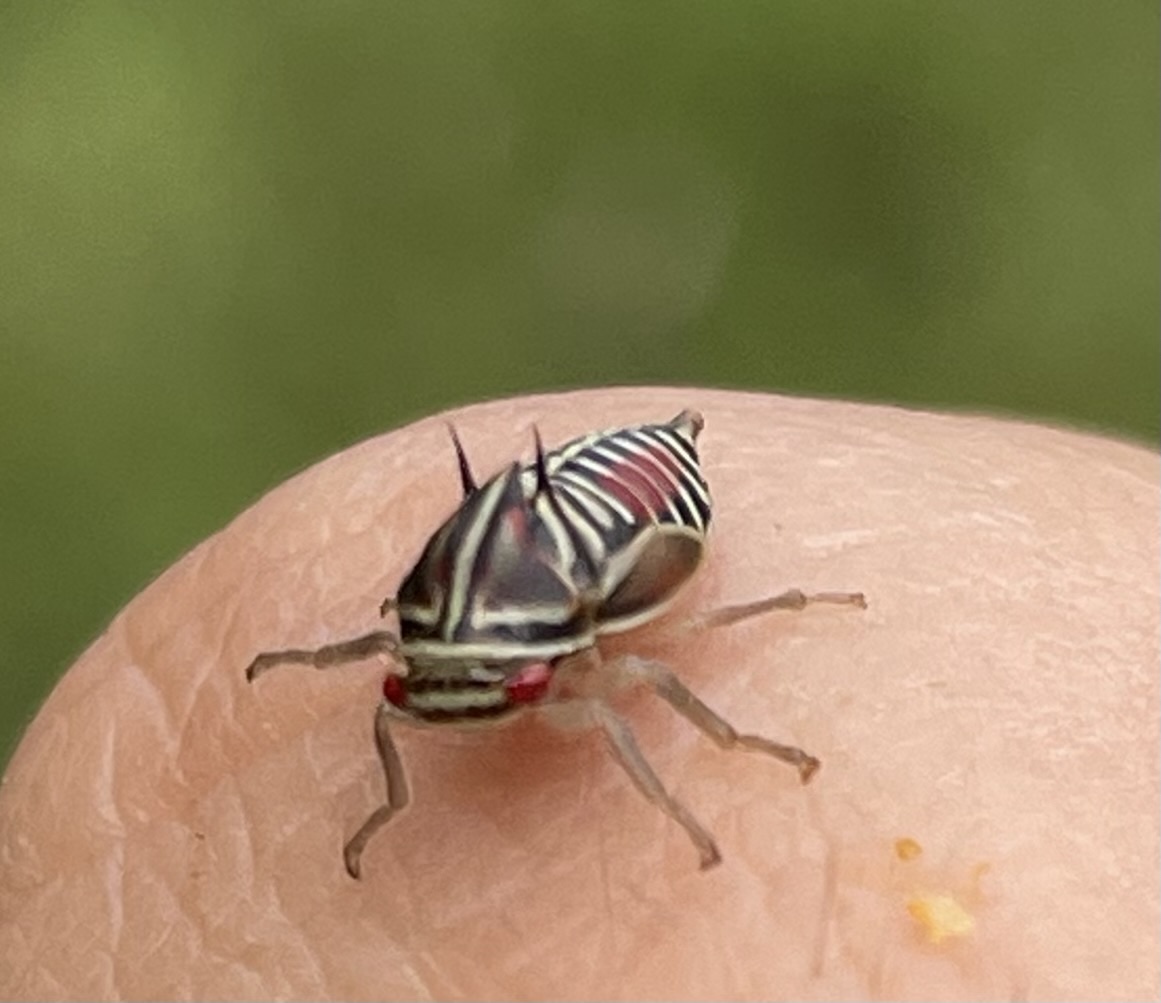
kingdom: Animalia
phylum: Arthropoda
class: Insecta
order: Hemiptera
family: Membracidae
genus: Platycotis
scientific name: Platycotis vittatus
